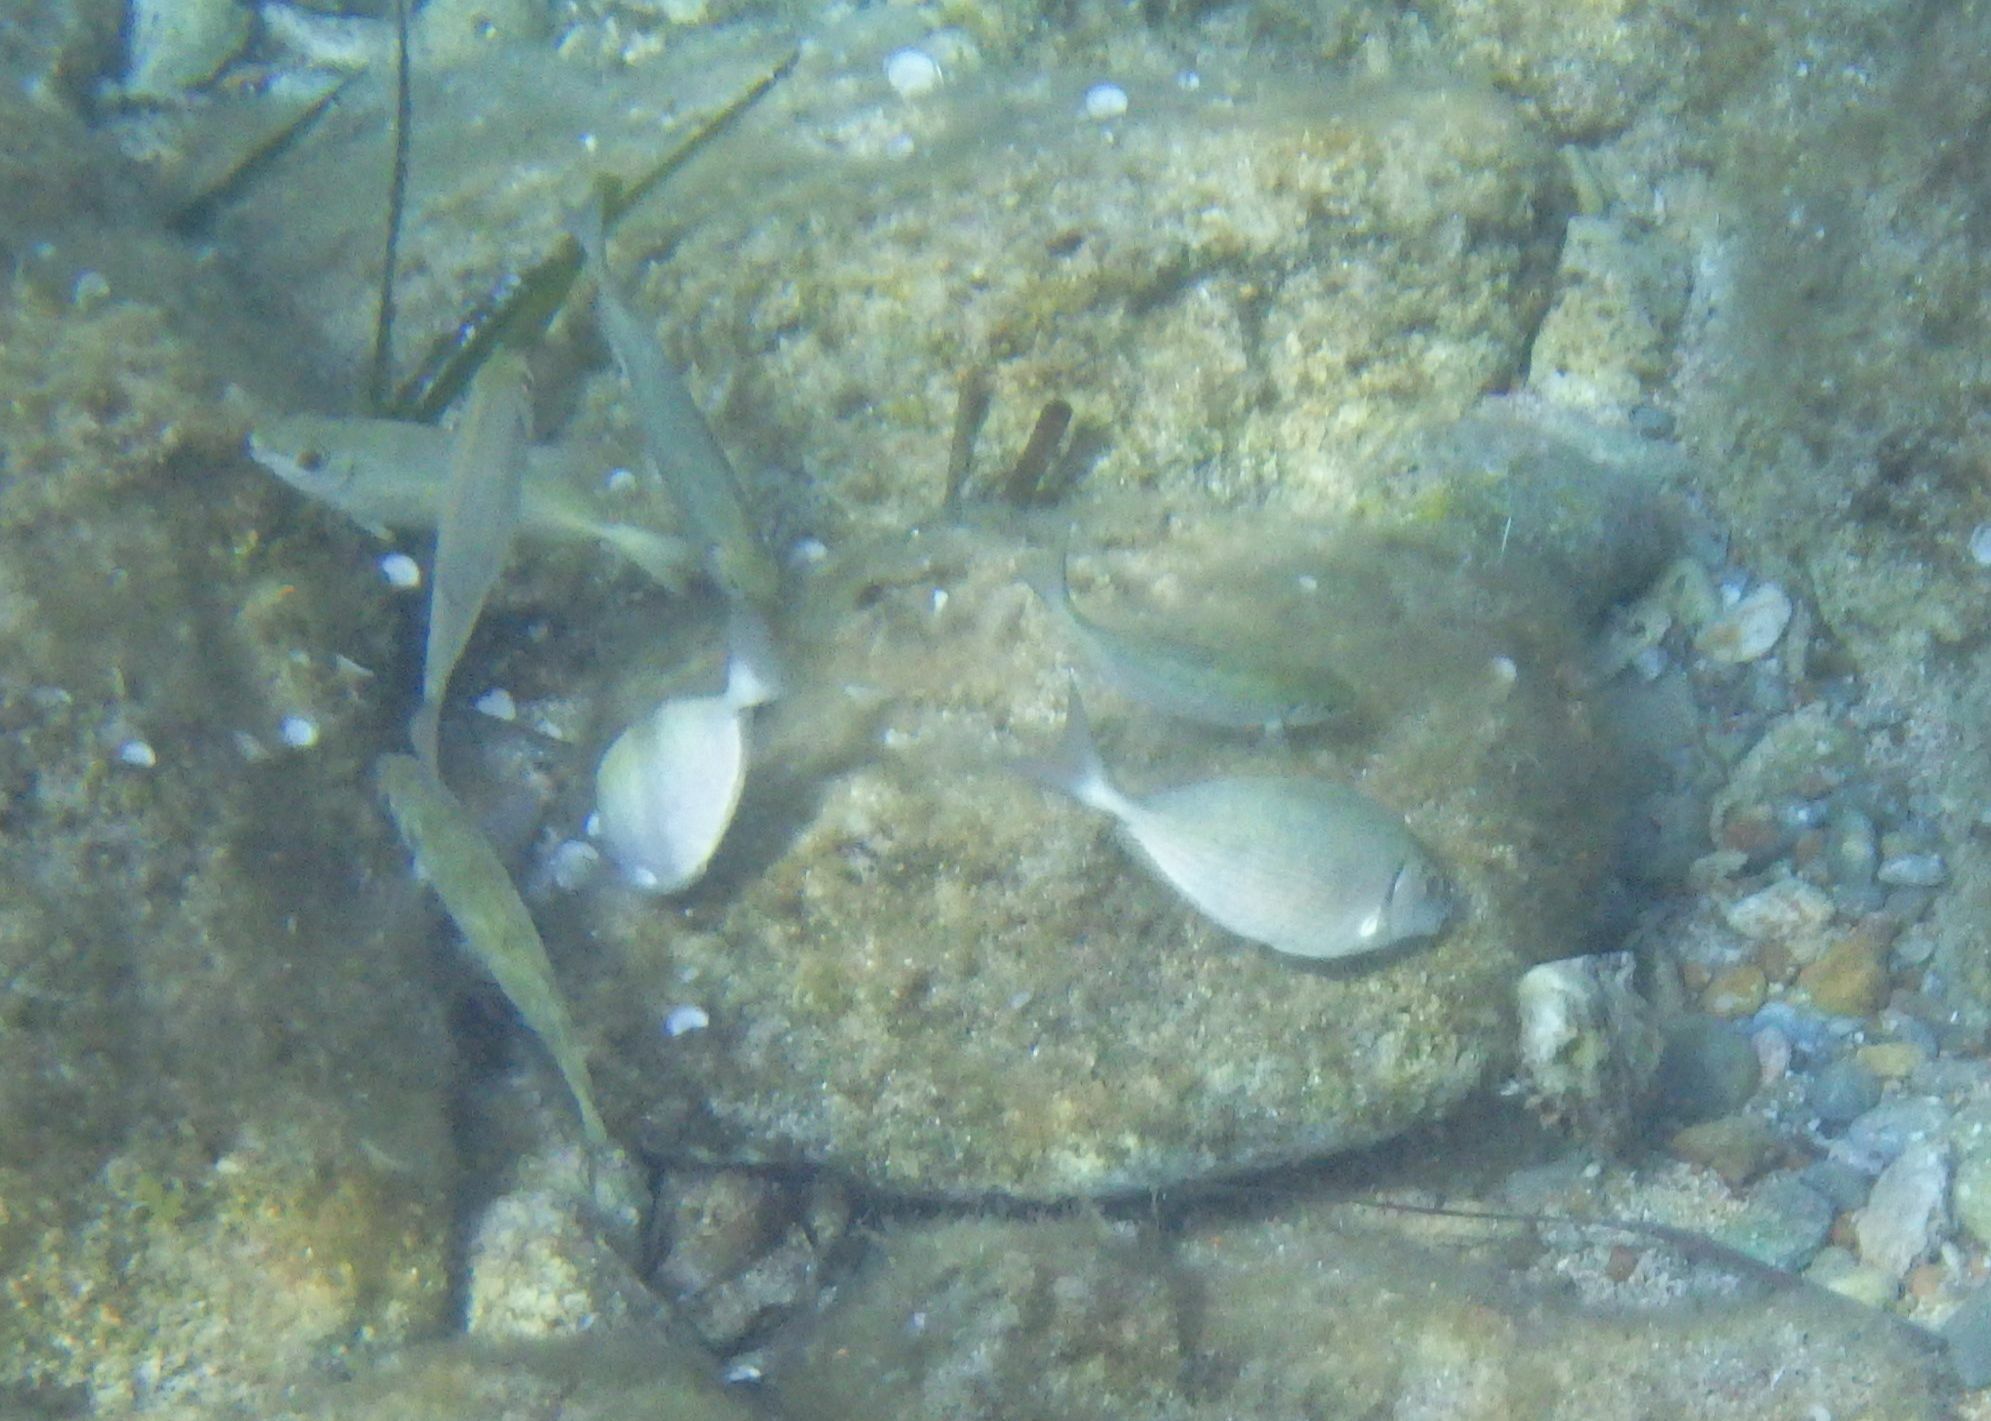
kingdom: Animalia
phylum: Chordata
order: Perciformes
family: Siganidae
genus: Siganus
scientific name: Siganus rivulatus
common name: Marbled spinefoot
